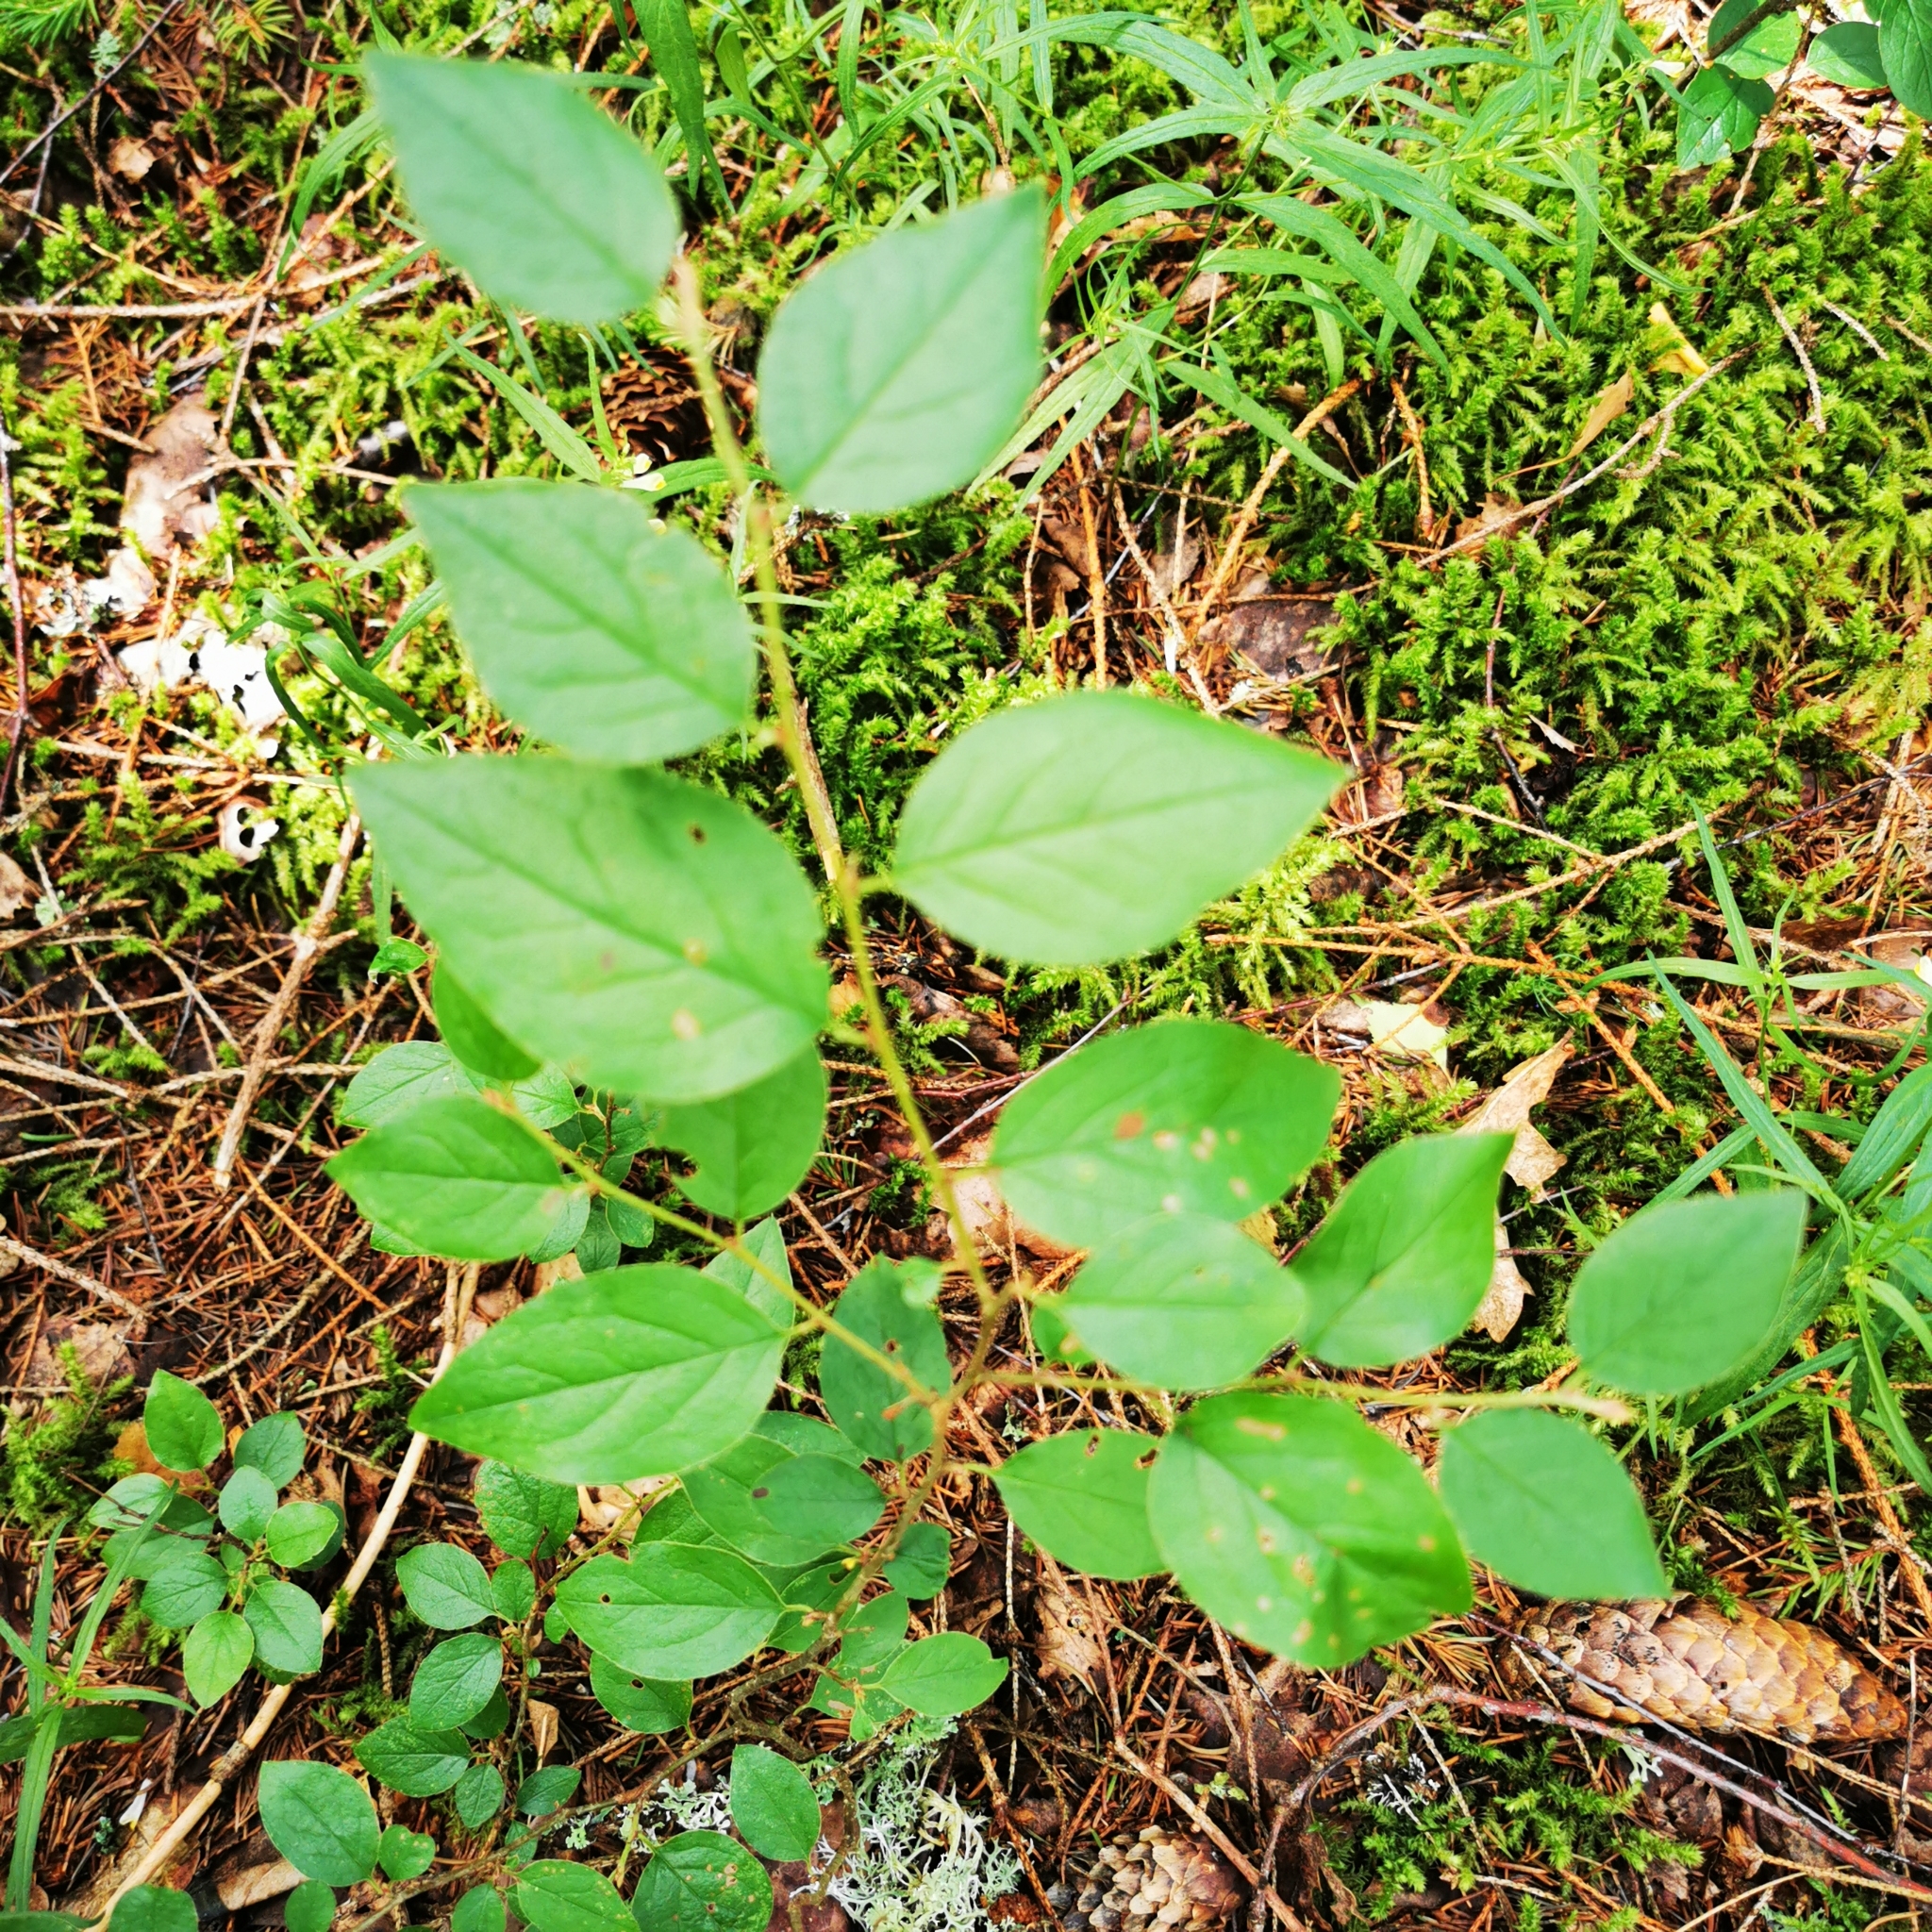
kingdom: Plantae
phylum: Tracheophyta
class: Magnoliopsida
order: Rosales
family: Rosaceae
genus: Cotoneaster
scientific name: Cotoneaster acutifolius
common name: Peking cotoneaster
